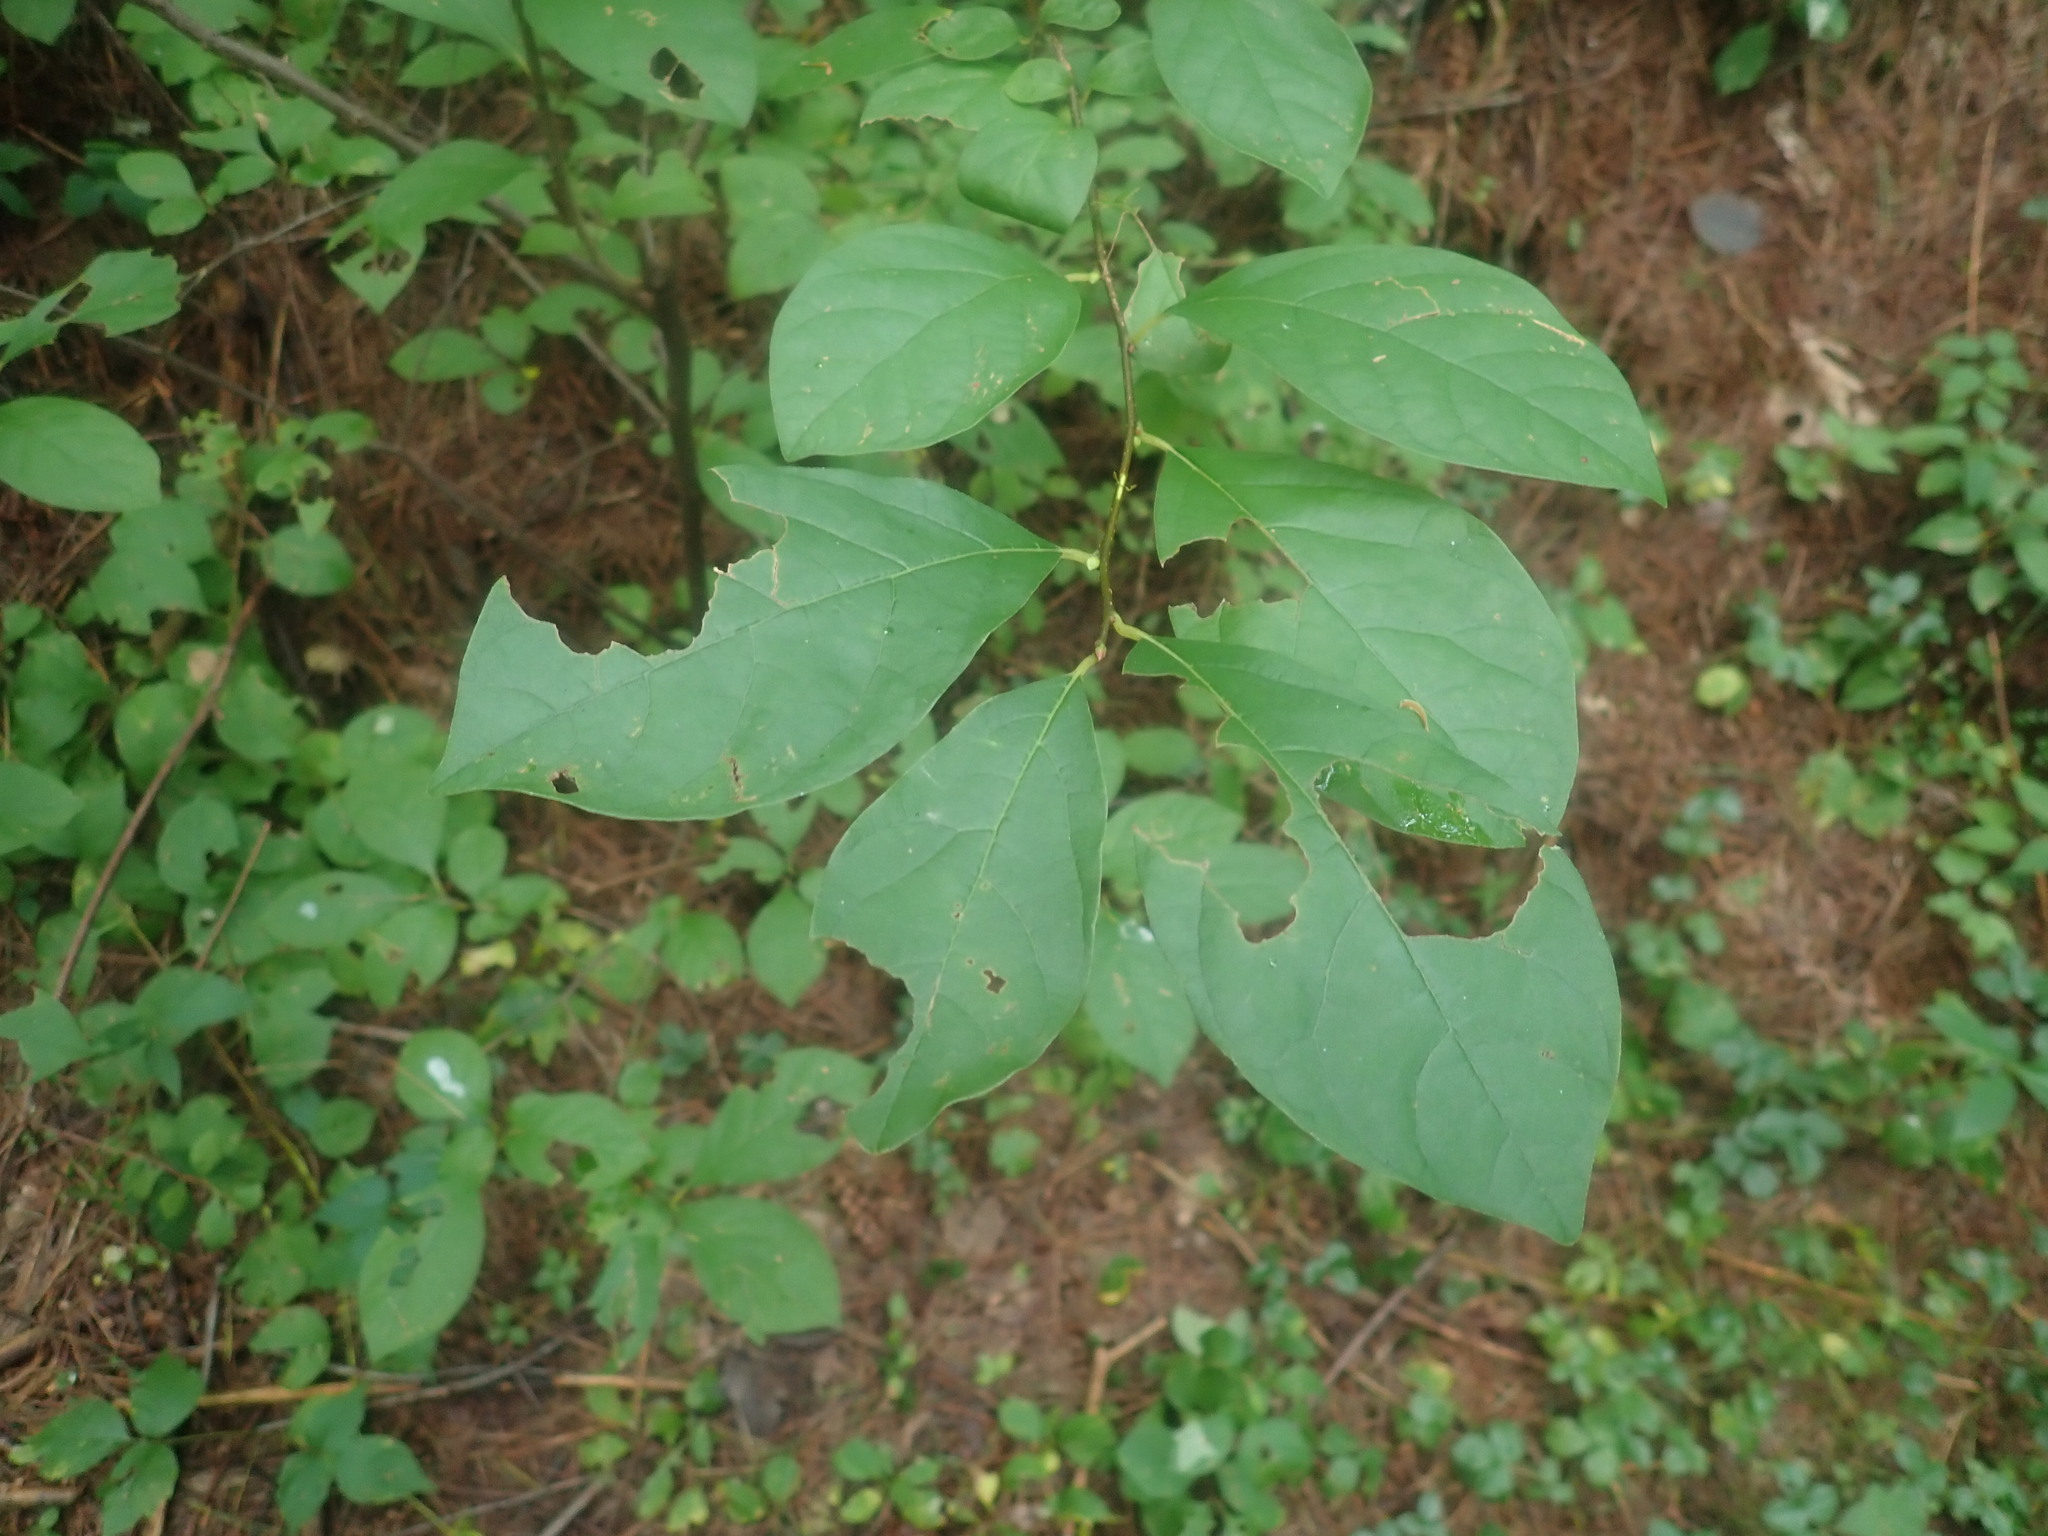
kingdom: Plantae
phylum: Tracheophyta
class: Magnoliopsida
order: Laurales
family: Lauraceae
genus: Lindera
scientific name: Lindera benzoin
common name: Spicebush
